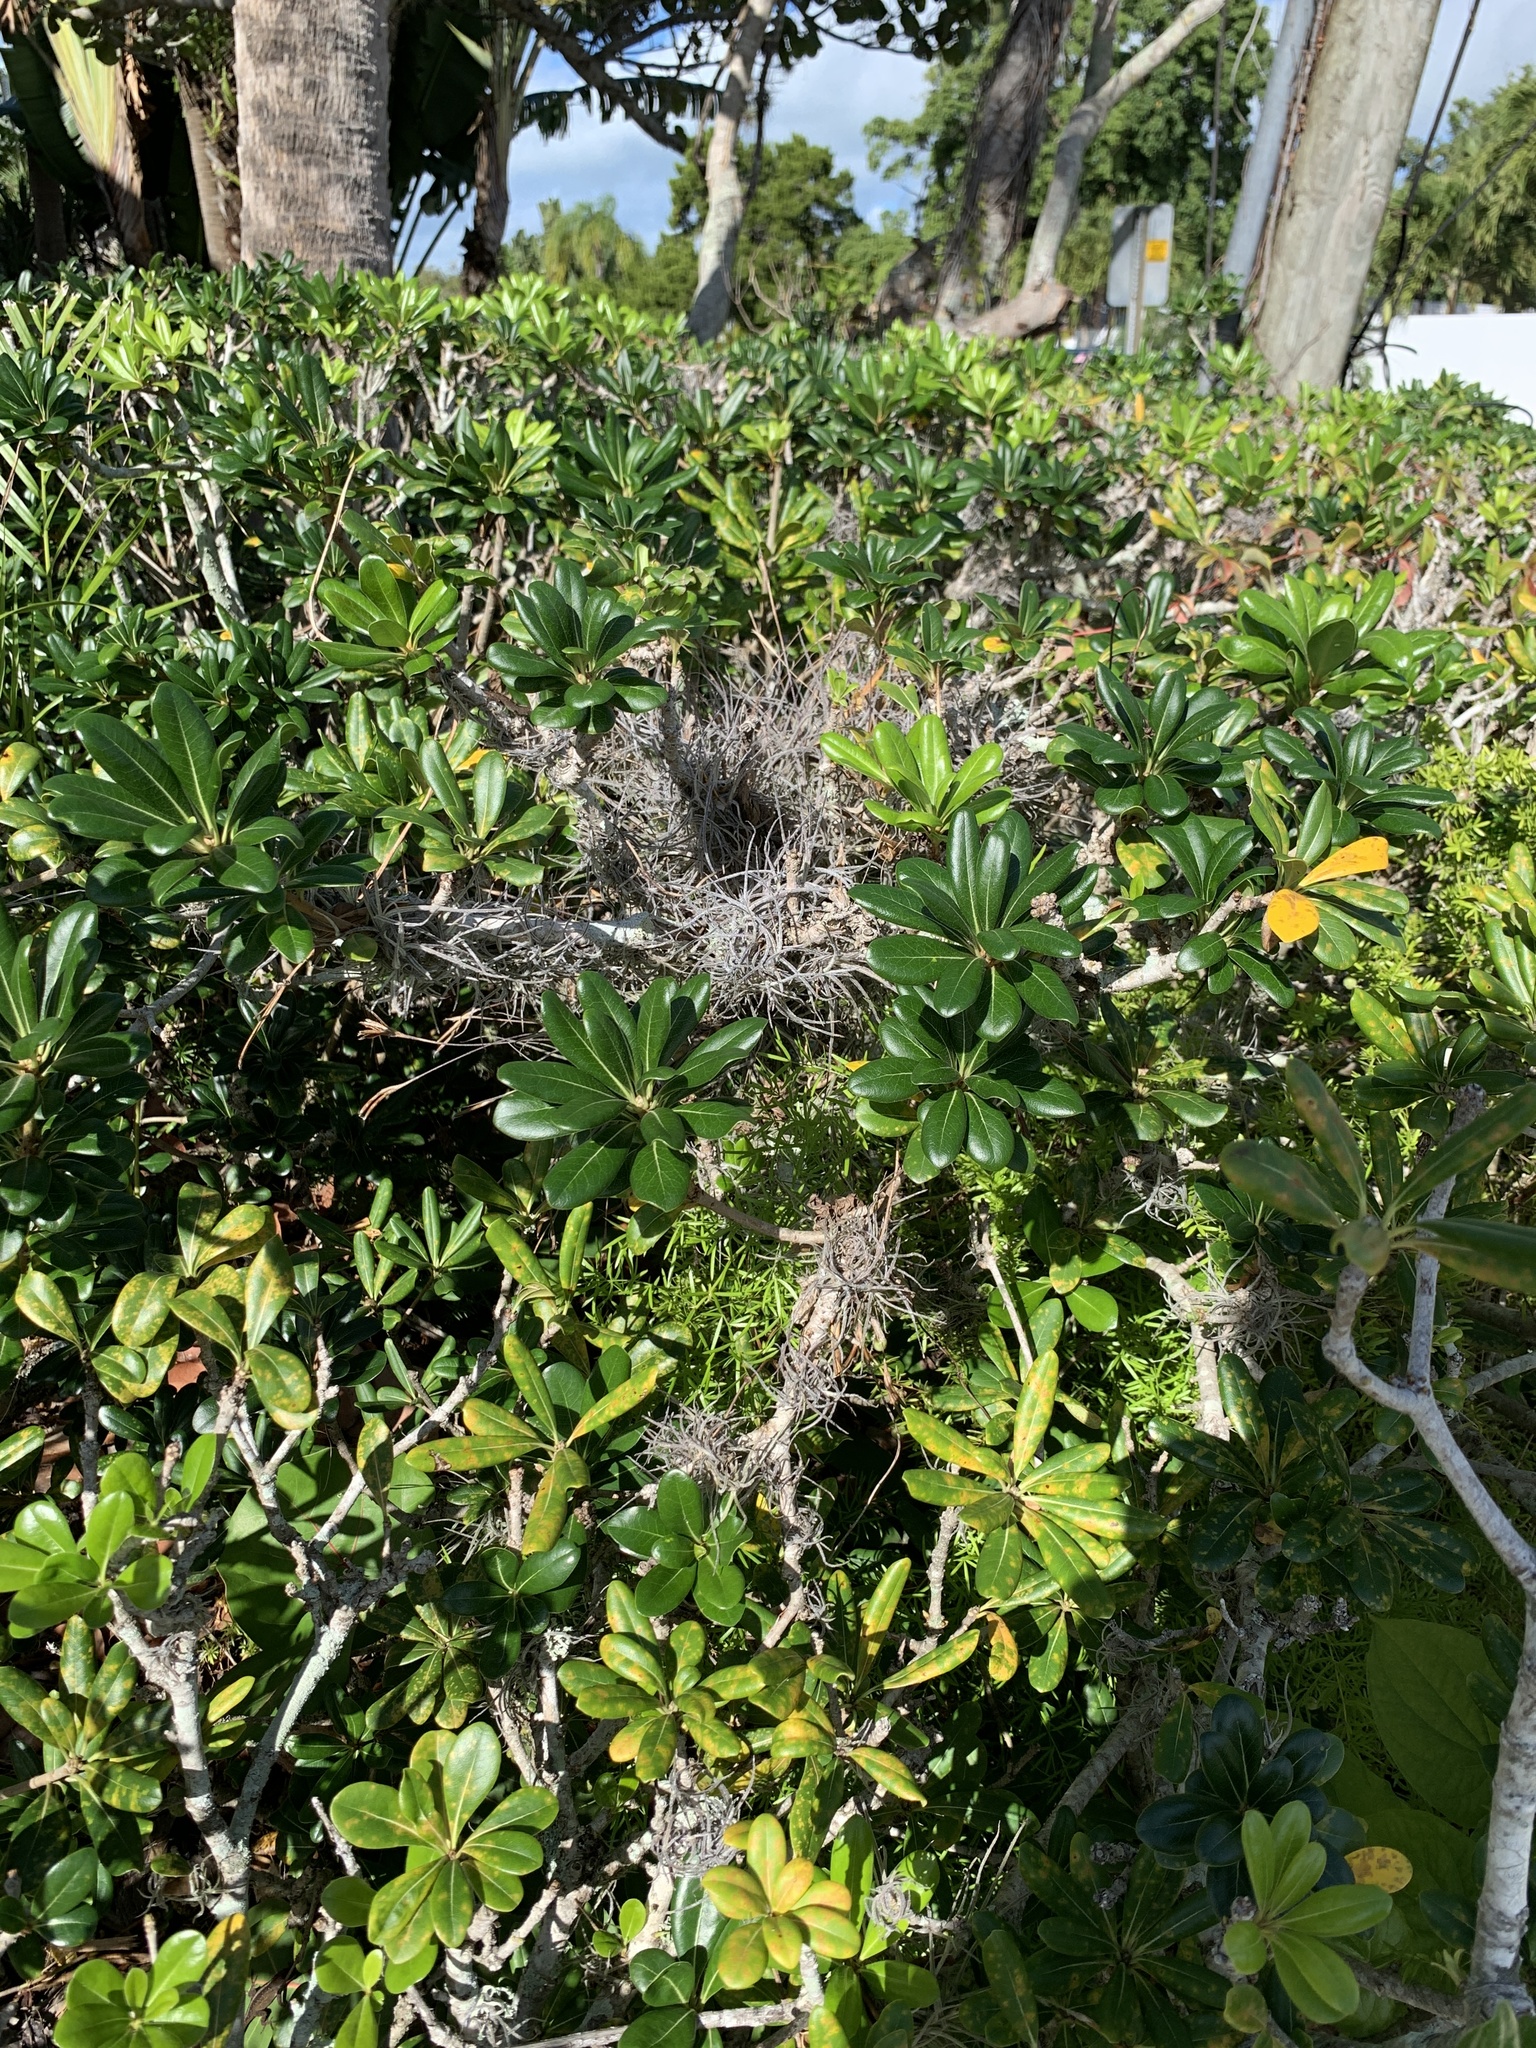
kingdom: Plantae
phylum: Tracheophyta
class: Liliopsida
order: Poales
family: Bromeliaceae
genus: Tillandsia
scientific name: Tillandsia recurvata
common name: Small ballmoss
